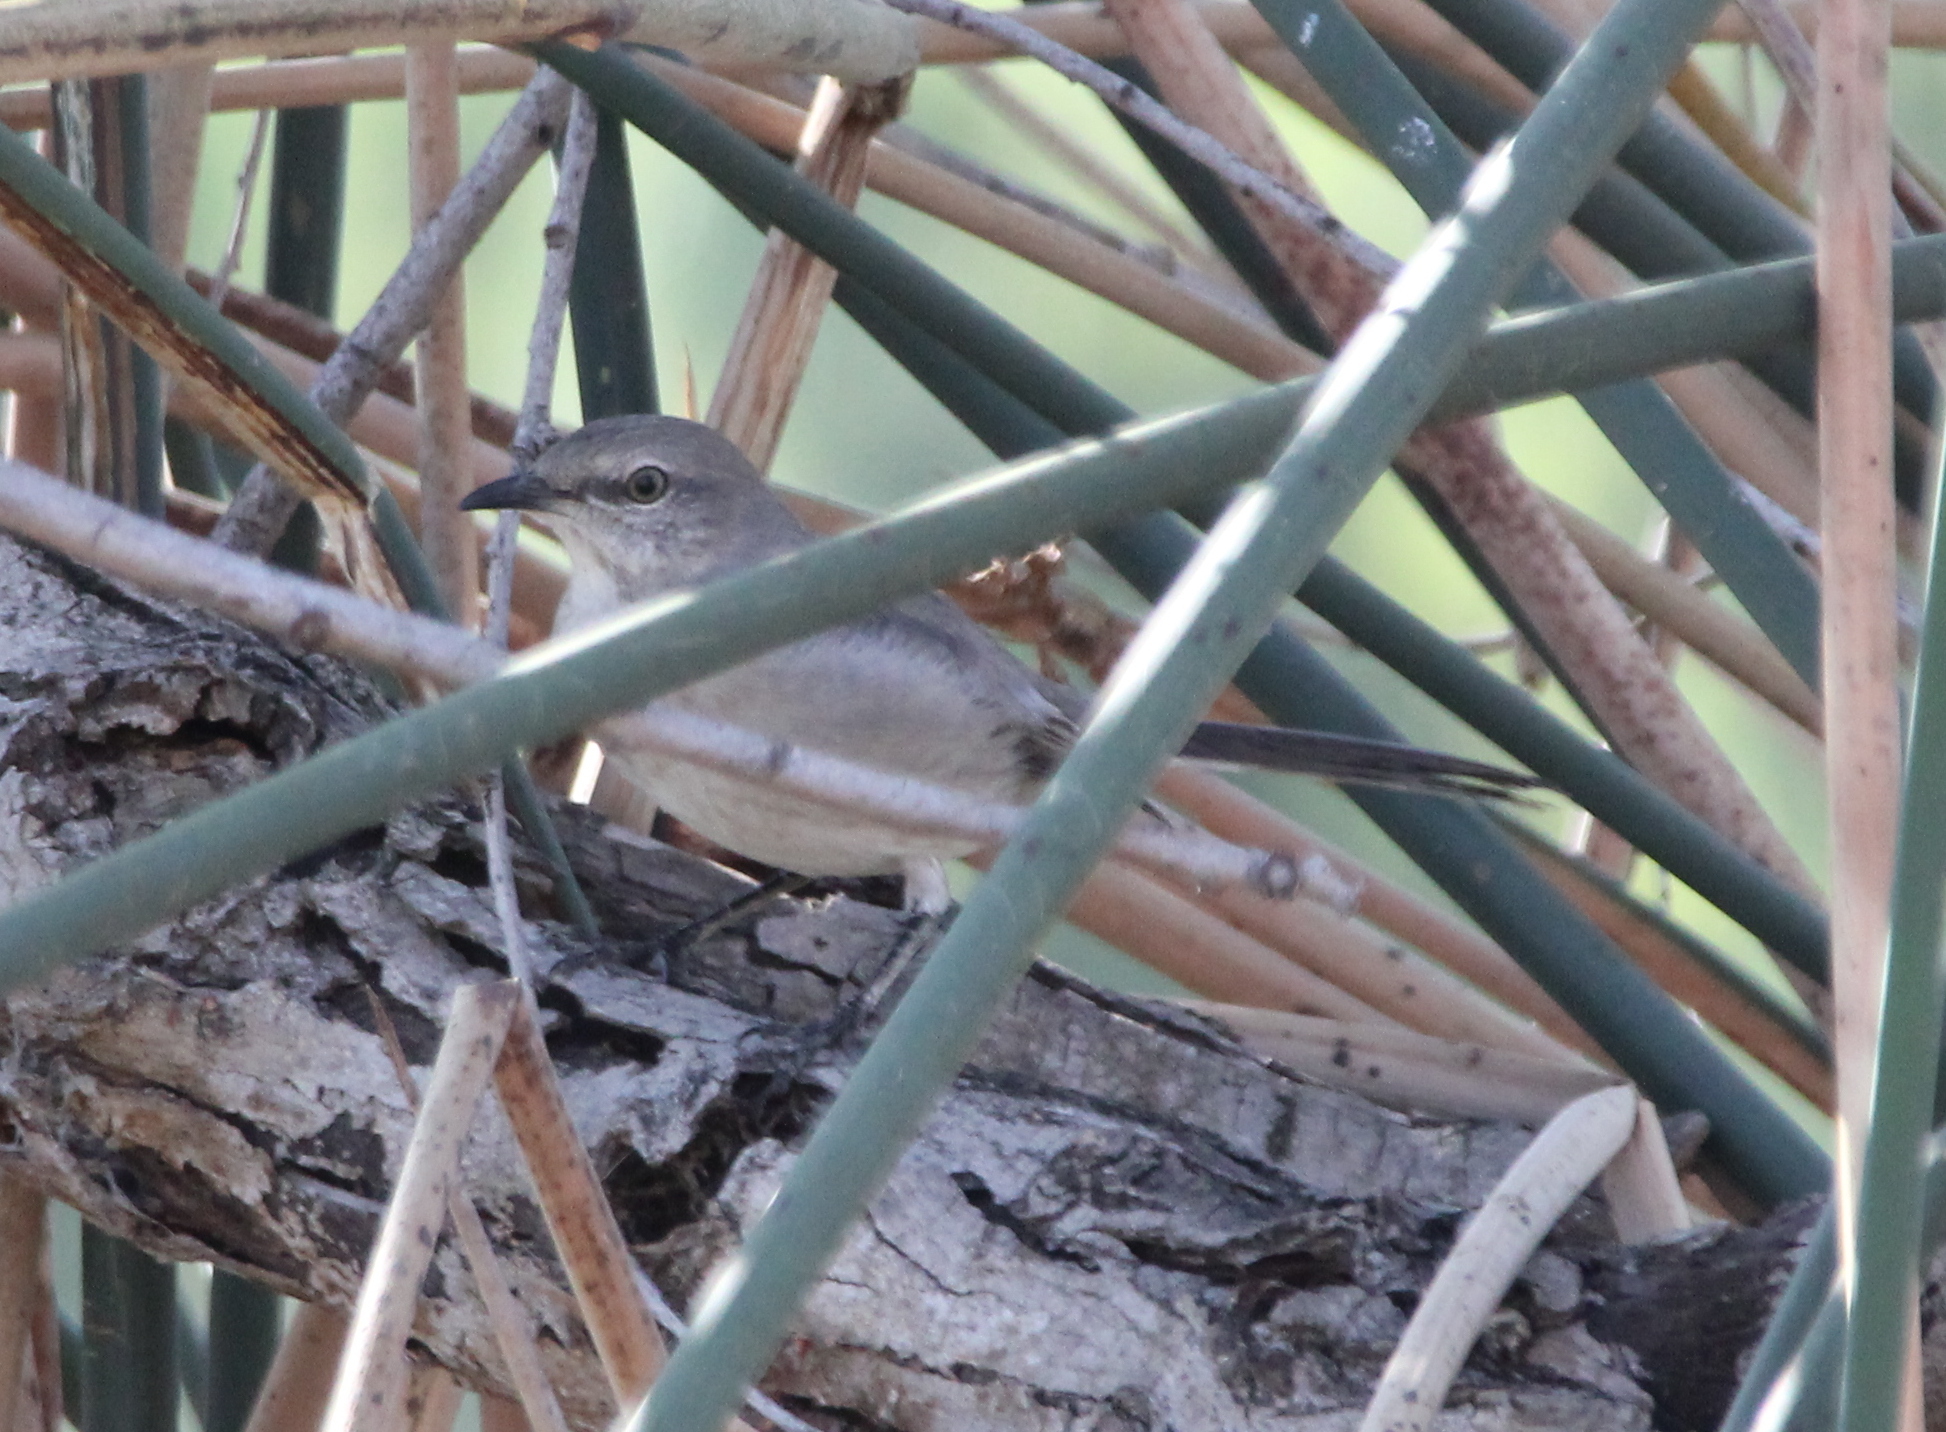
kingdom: Animalia
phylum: Chordata
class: Aves
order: Passeriformes
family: Mimidae
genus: Mimus
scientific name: Mimus polyglottos
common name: Northern mockingbird
